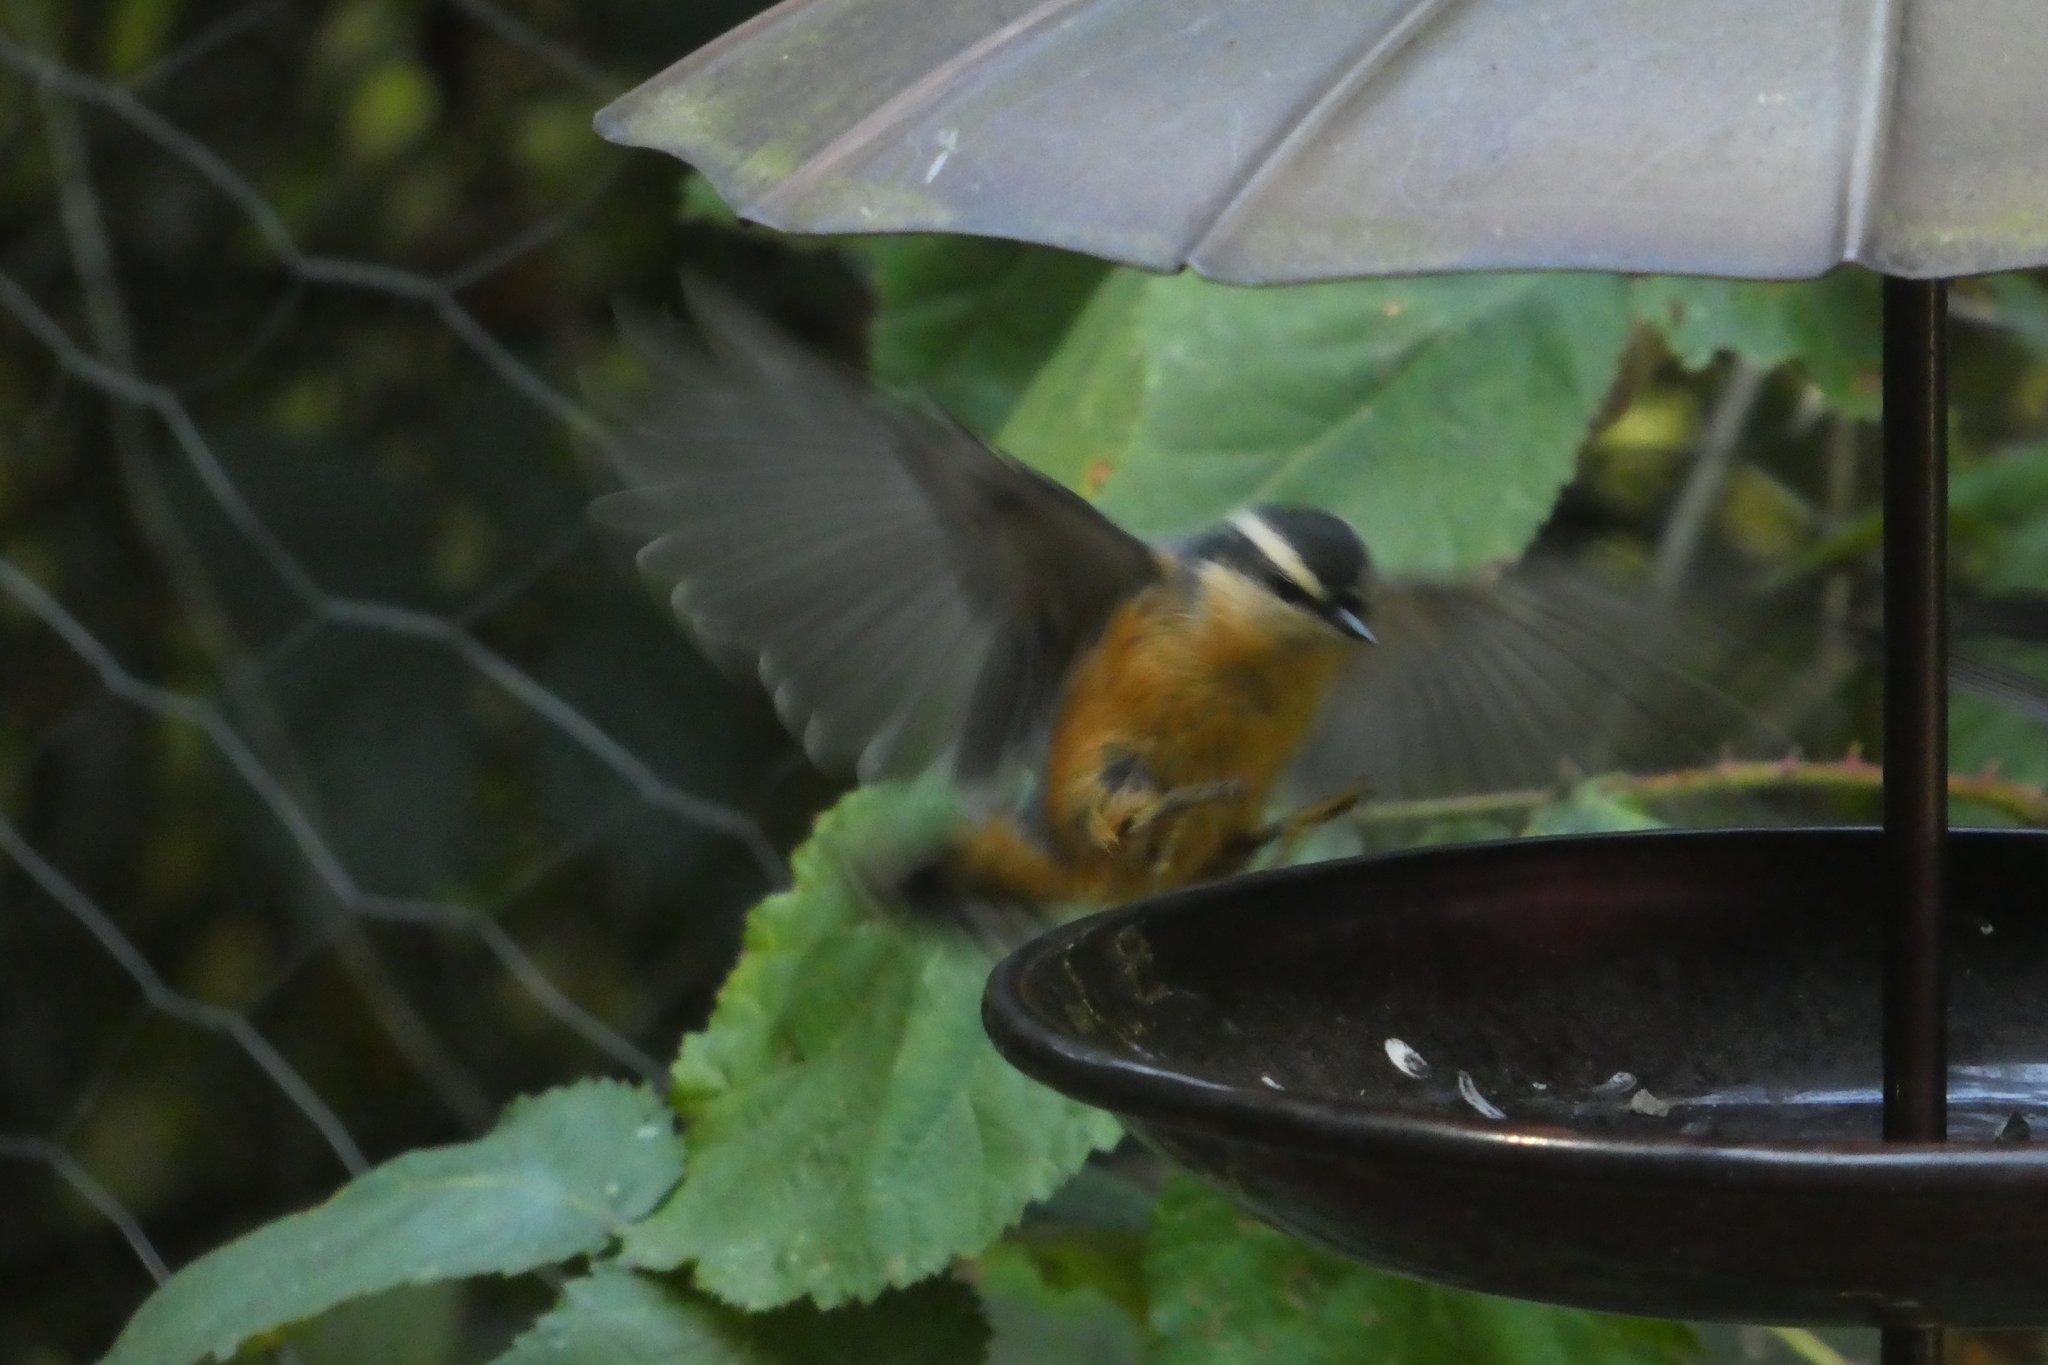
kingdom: Animalia
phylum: Chordata
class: Aves
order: Passeriformes
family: Sittidae
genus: Sitta
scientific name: Sitta canadensis
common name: Red-breasted nuthatch
